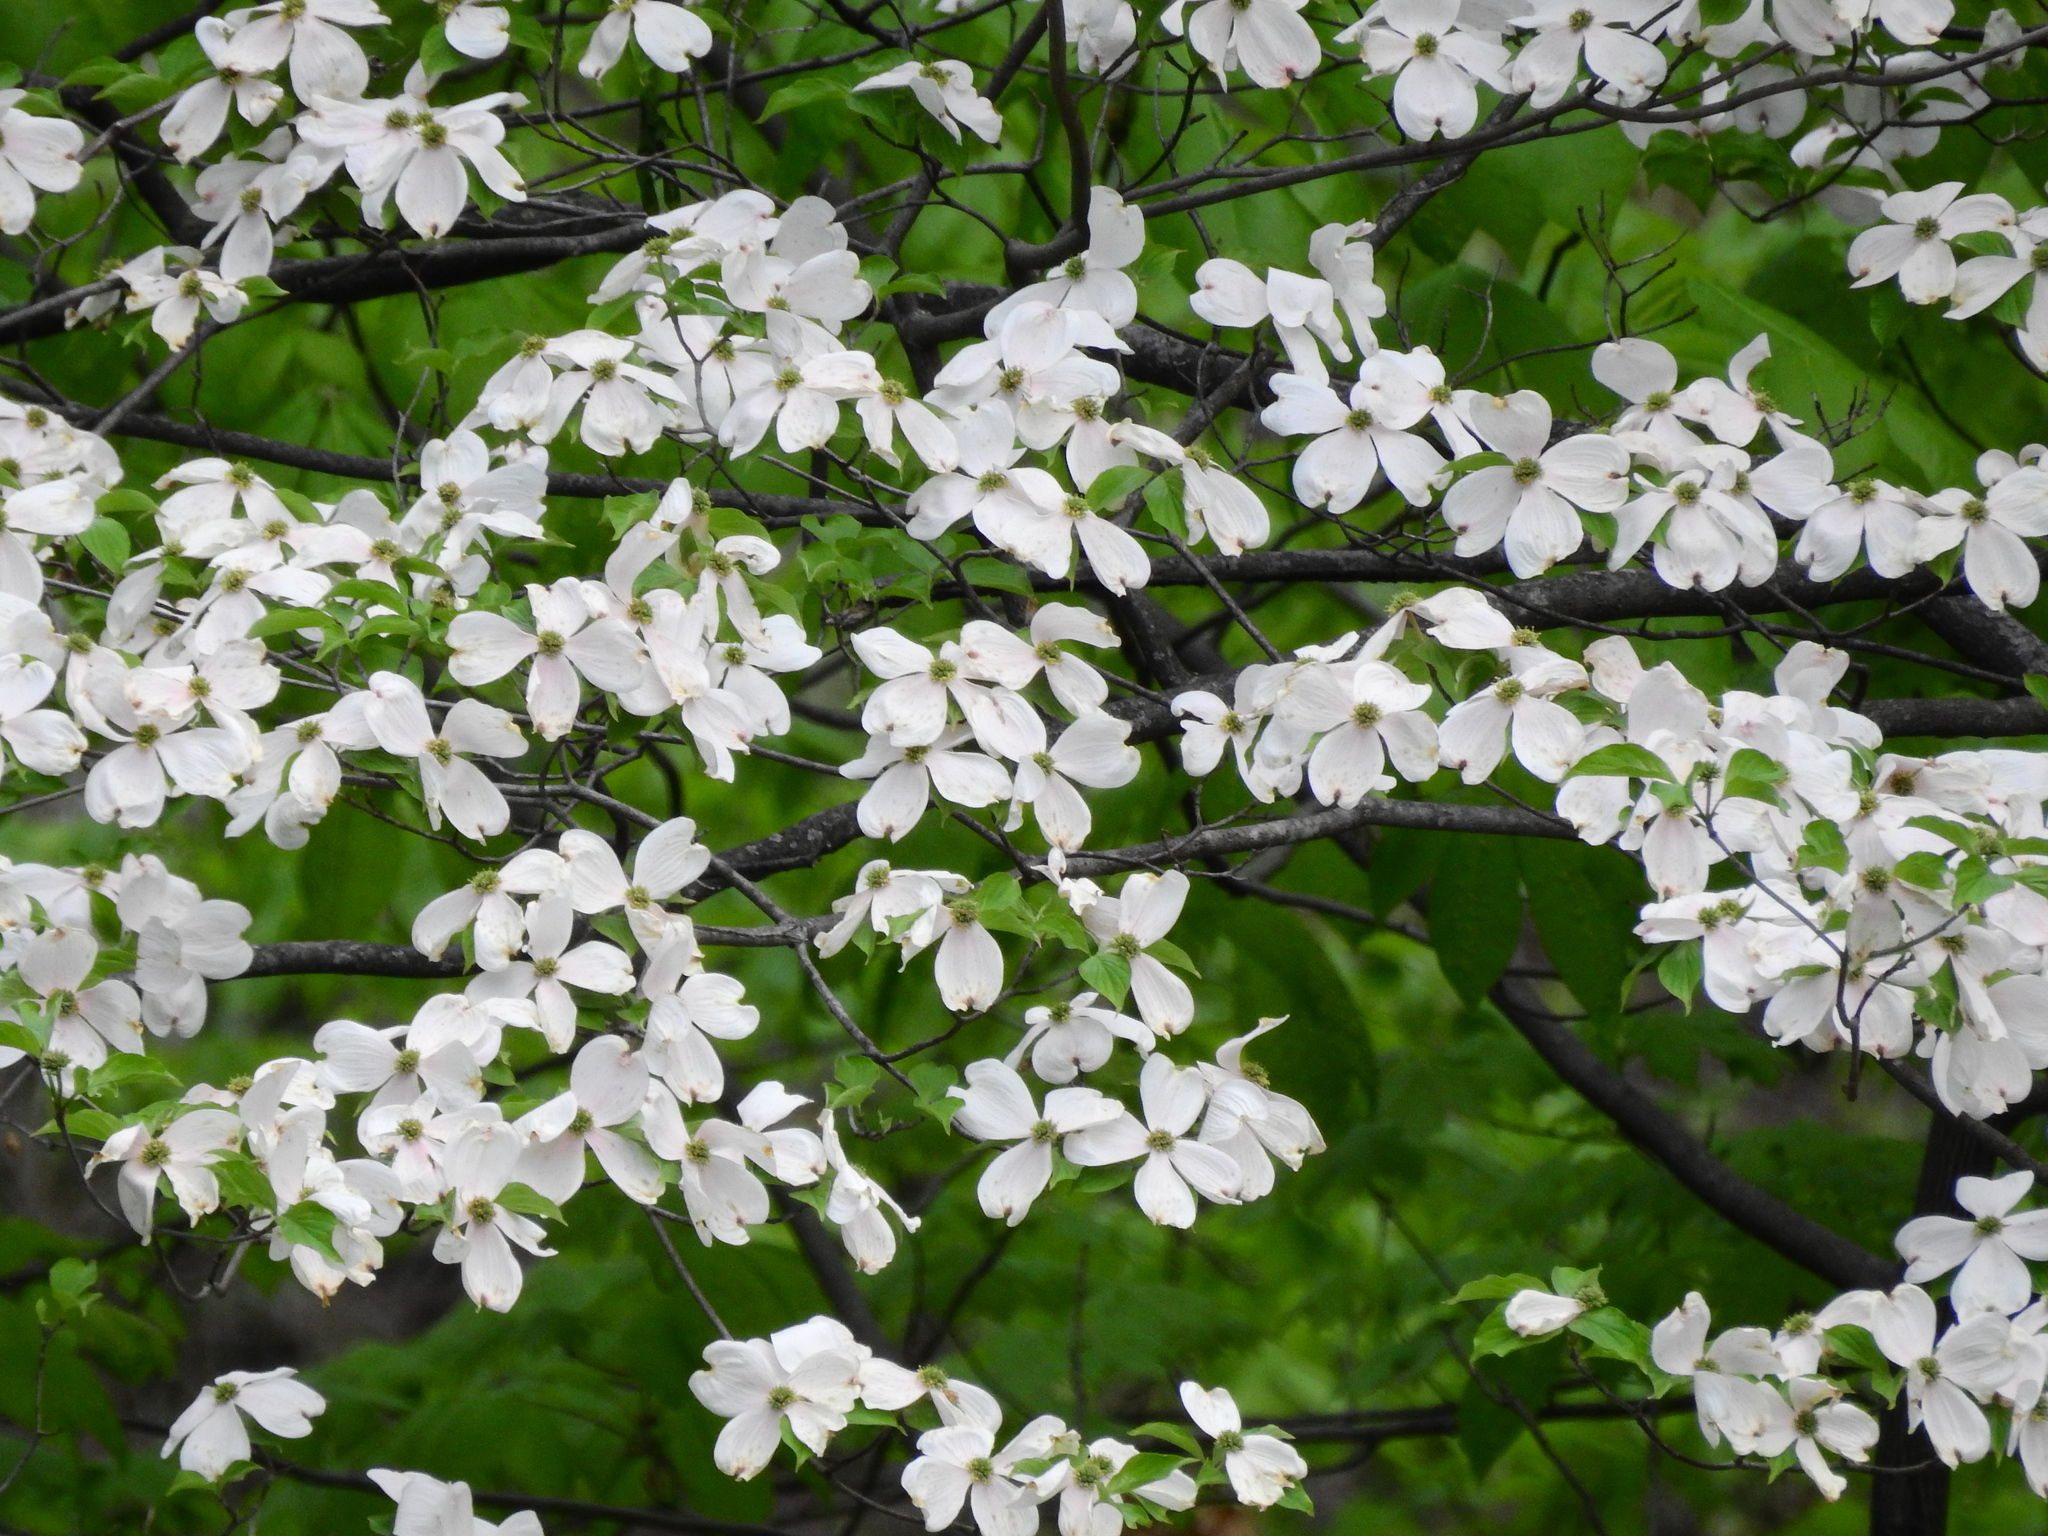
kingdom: Plantae
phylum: Tracheophyta
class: Magnoliopsida
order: Cornales
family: Cornaceae
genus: Cornus
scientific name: Cornus florida
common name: Flowering dogwood
